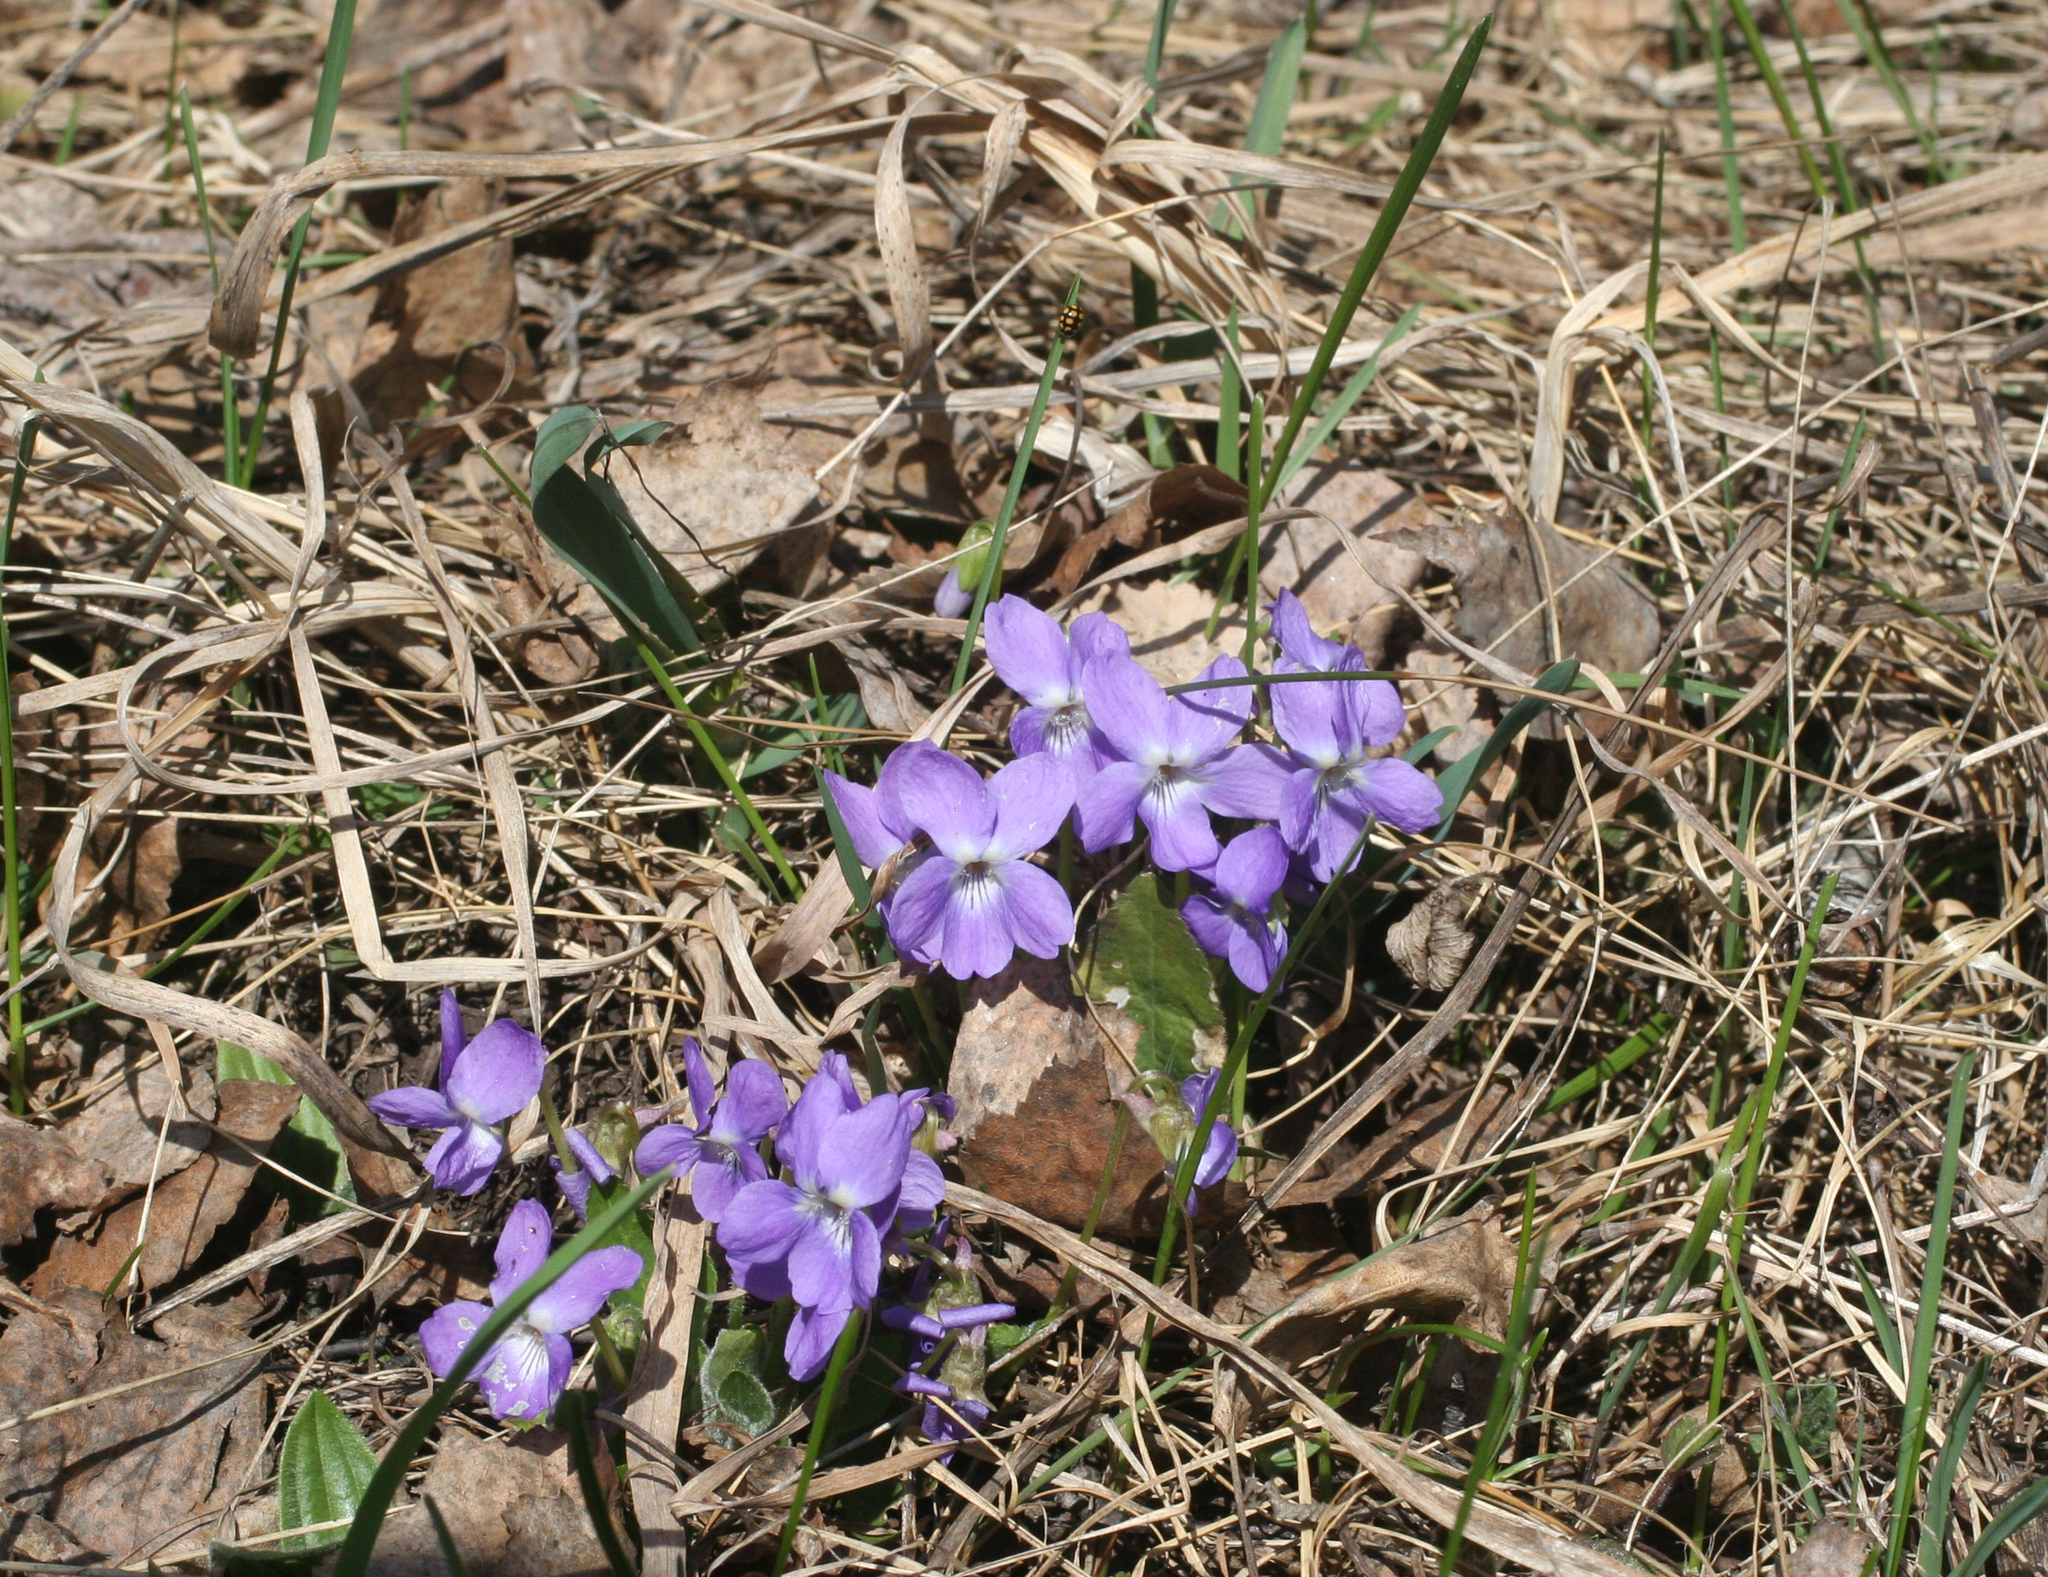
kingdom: Plantae
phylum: Tracheophyta
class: Magnoliopsida
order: Malpighiales
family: Violaceae
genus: Viola
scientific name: Viola hirta
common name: Hairy violet
